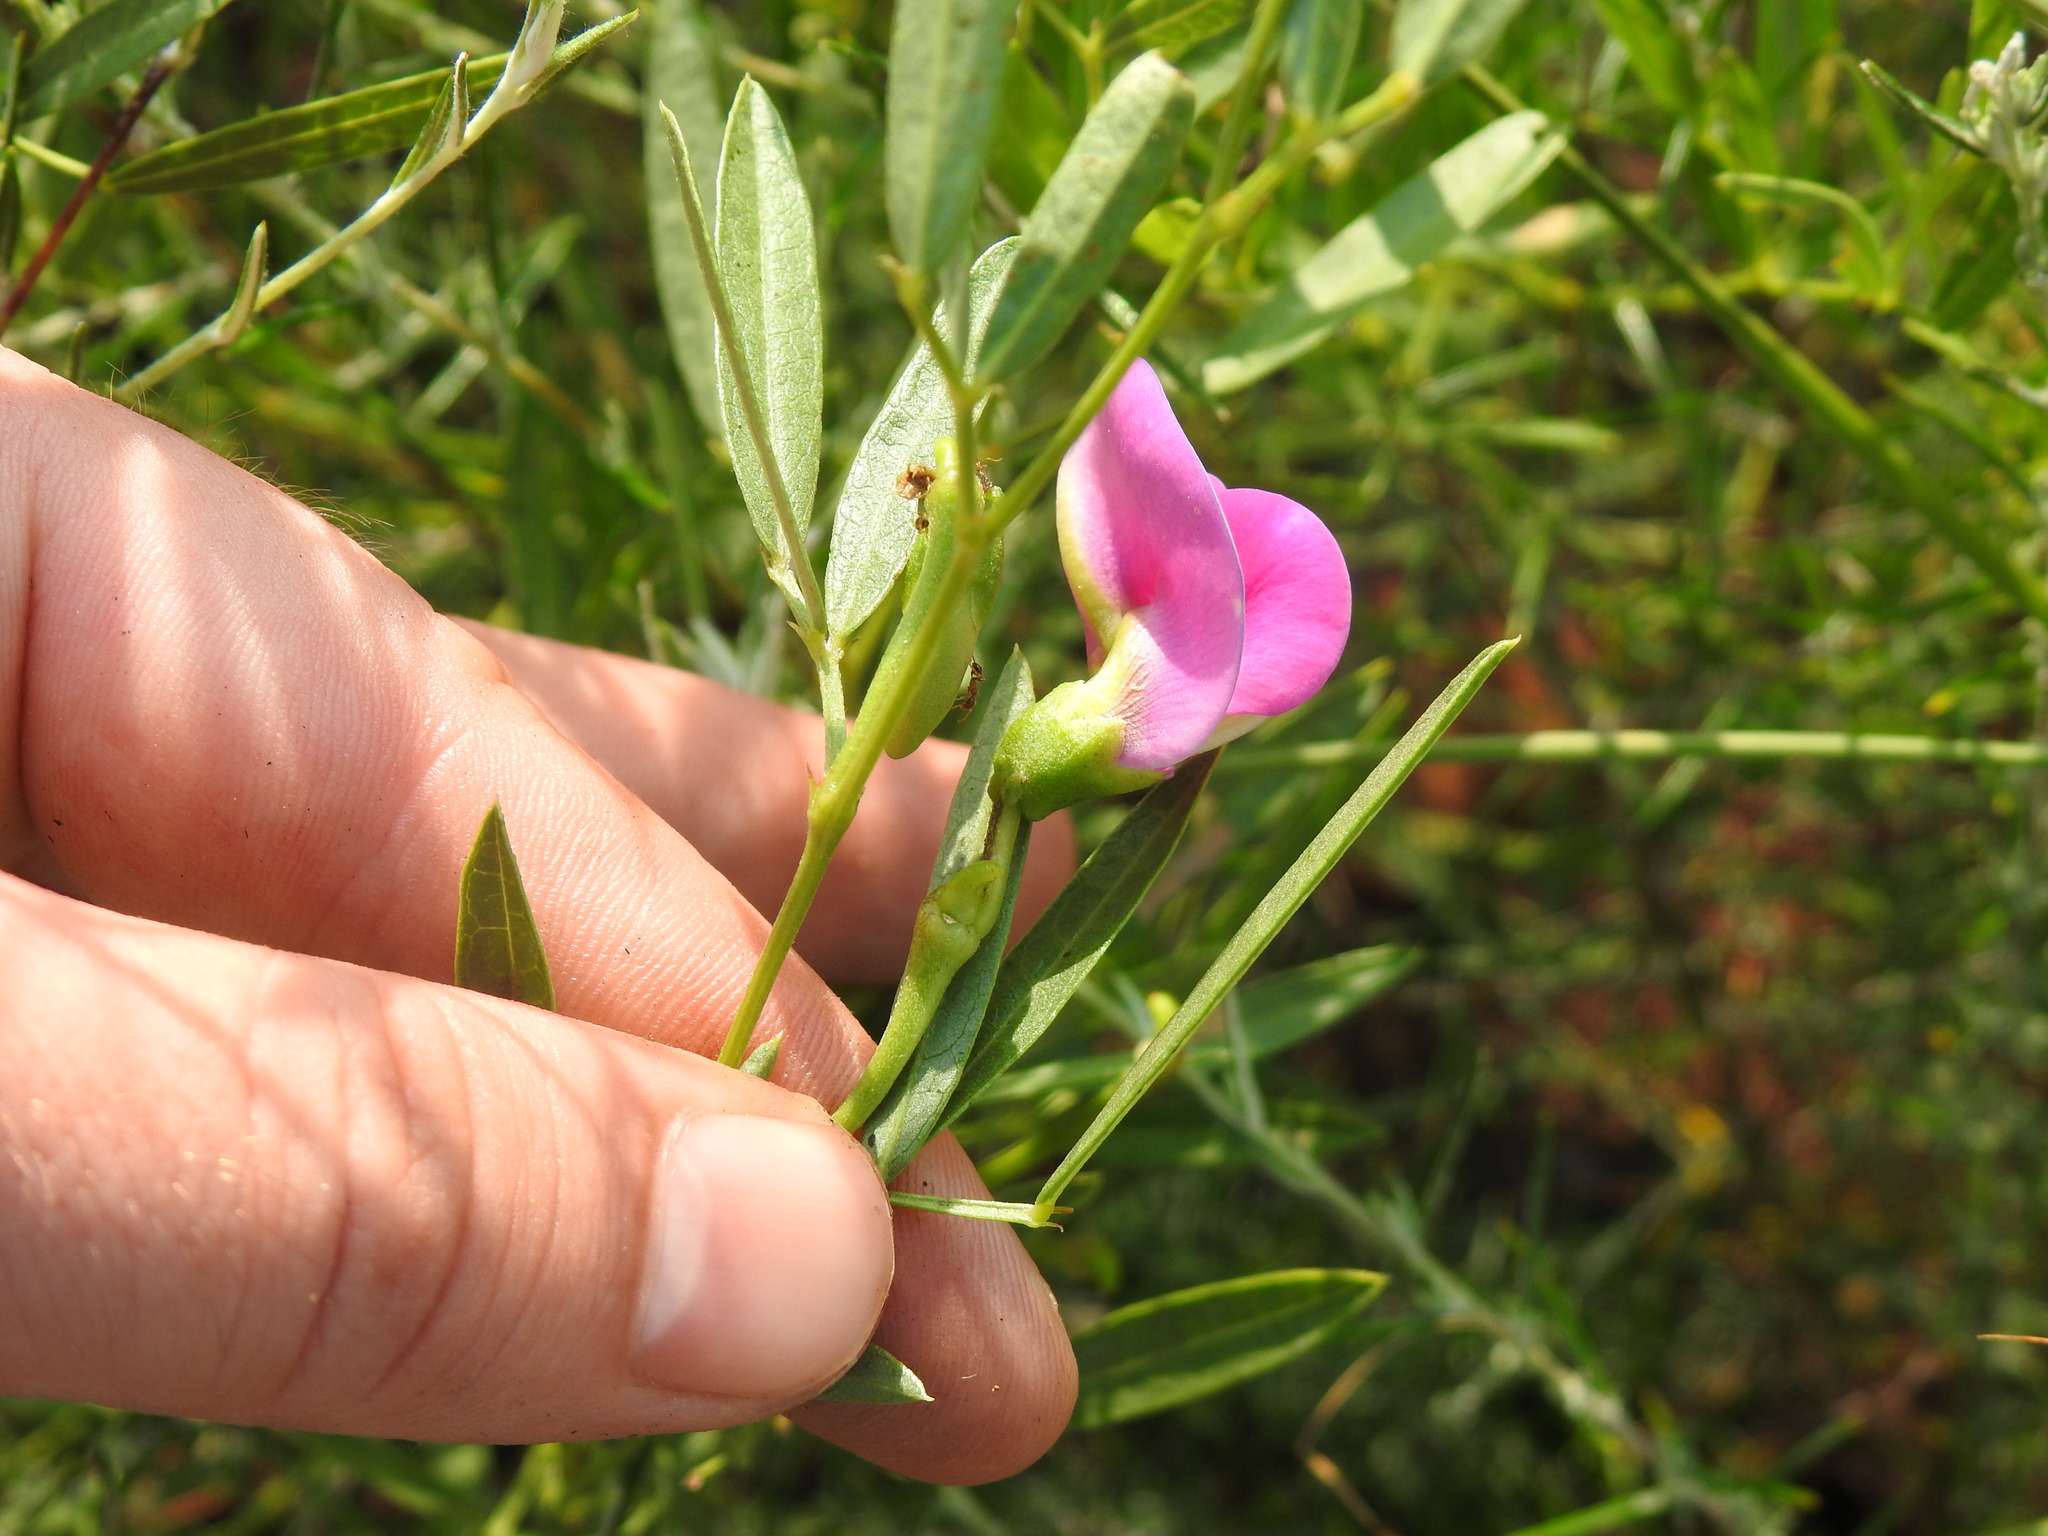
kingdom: Plantae
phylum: Tracheophyta
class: Magnoliopsida
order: Fabales
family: Fabaceae
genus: Sphenostylis
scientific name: Sphenostylis angustifolia
